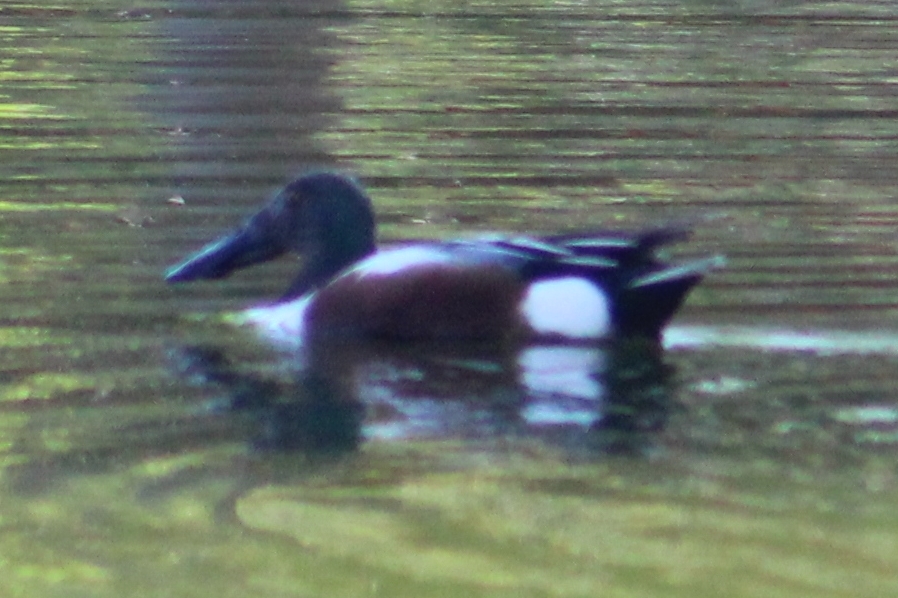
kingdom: Animalia
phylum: Chordata
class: Aves
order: Anseriformes
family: Anatidae
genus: Spatula
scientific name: Spatula clypeata
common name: Northern shoveler
